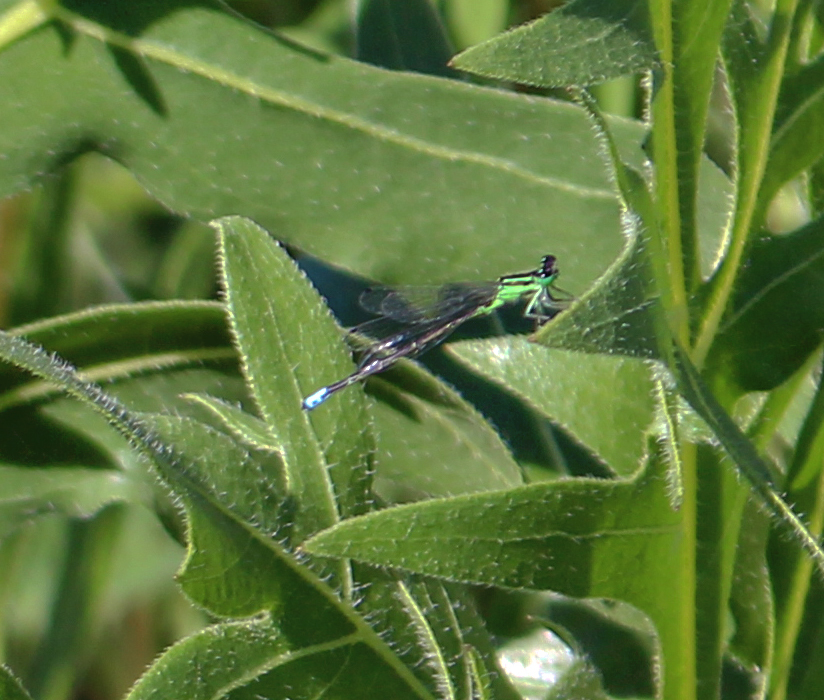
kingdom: Animalia
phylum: Arthropoda
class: Insecta
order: Odonata
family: Coenagrionidae
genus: Ischnura
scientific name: Ischnura verticalis
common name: Eastern forktail
